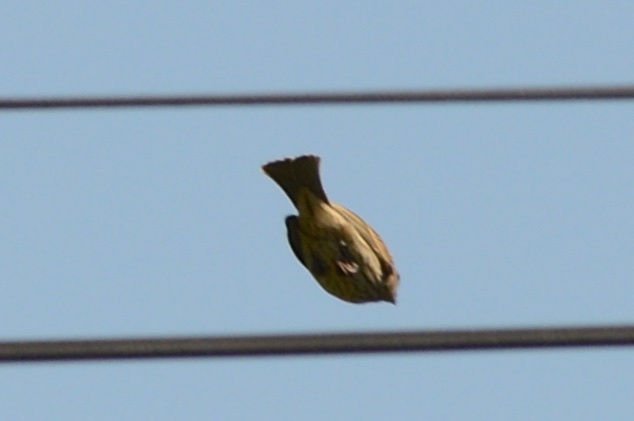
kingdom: Animalia
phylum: Chordata
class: Aves
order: Passeriformes
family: Fringillidae
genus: Haemorhous
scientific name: Haemorhous mexicanus
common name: House finch
